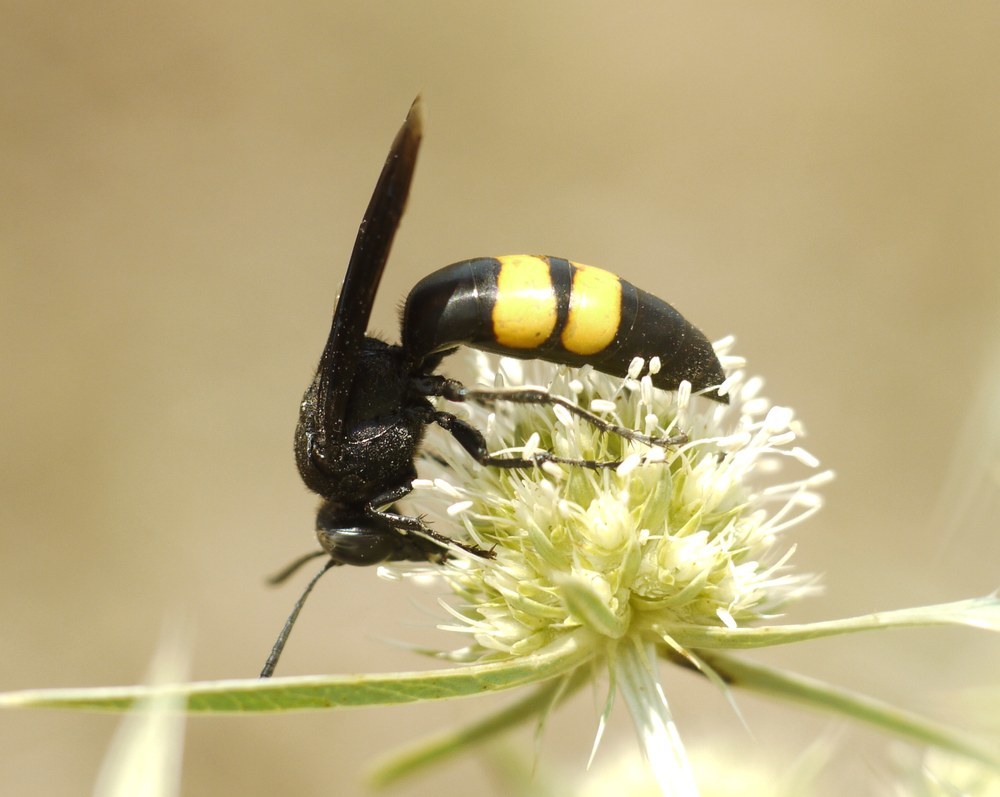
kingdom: Animalia
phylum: Arthropoda
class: Insecta
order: Hymenoptera
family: Crabronidae
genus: Stizoides
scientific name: Stizoides tridentatus
